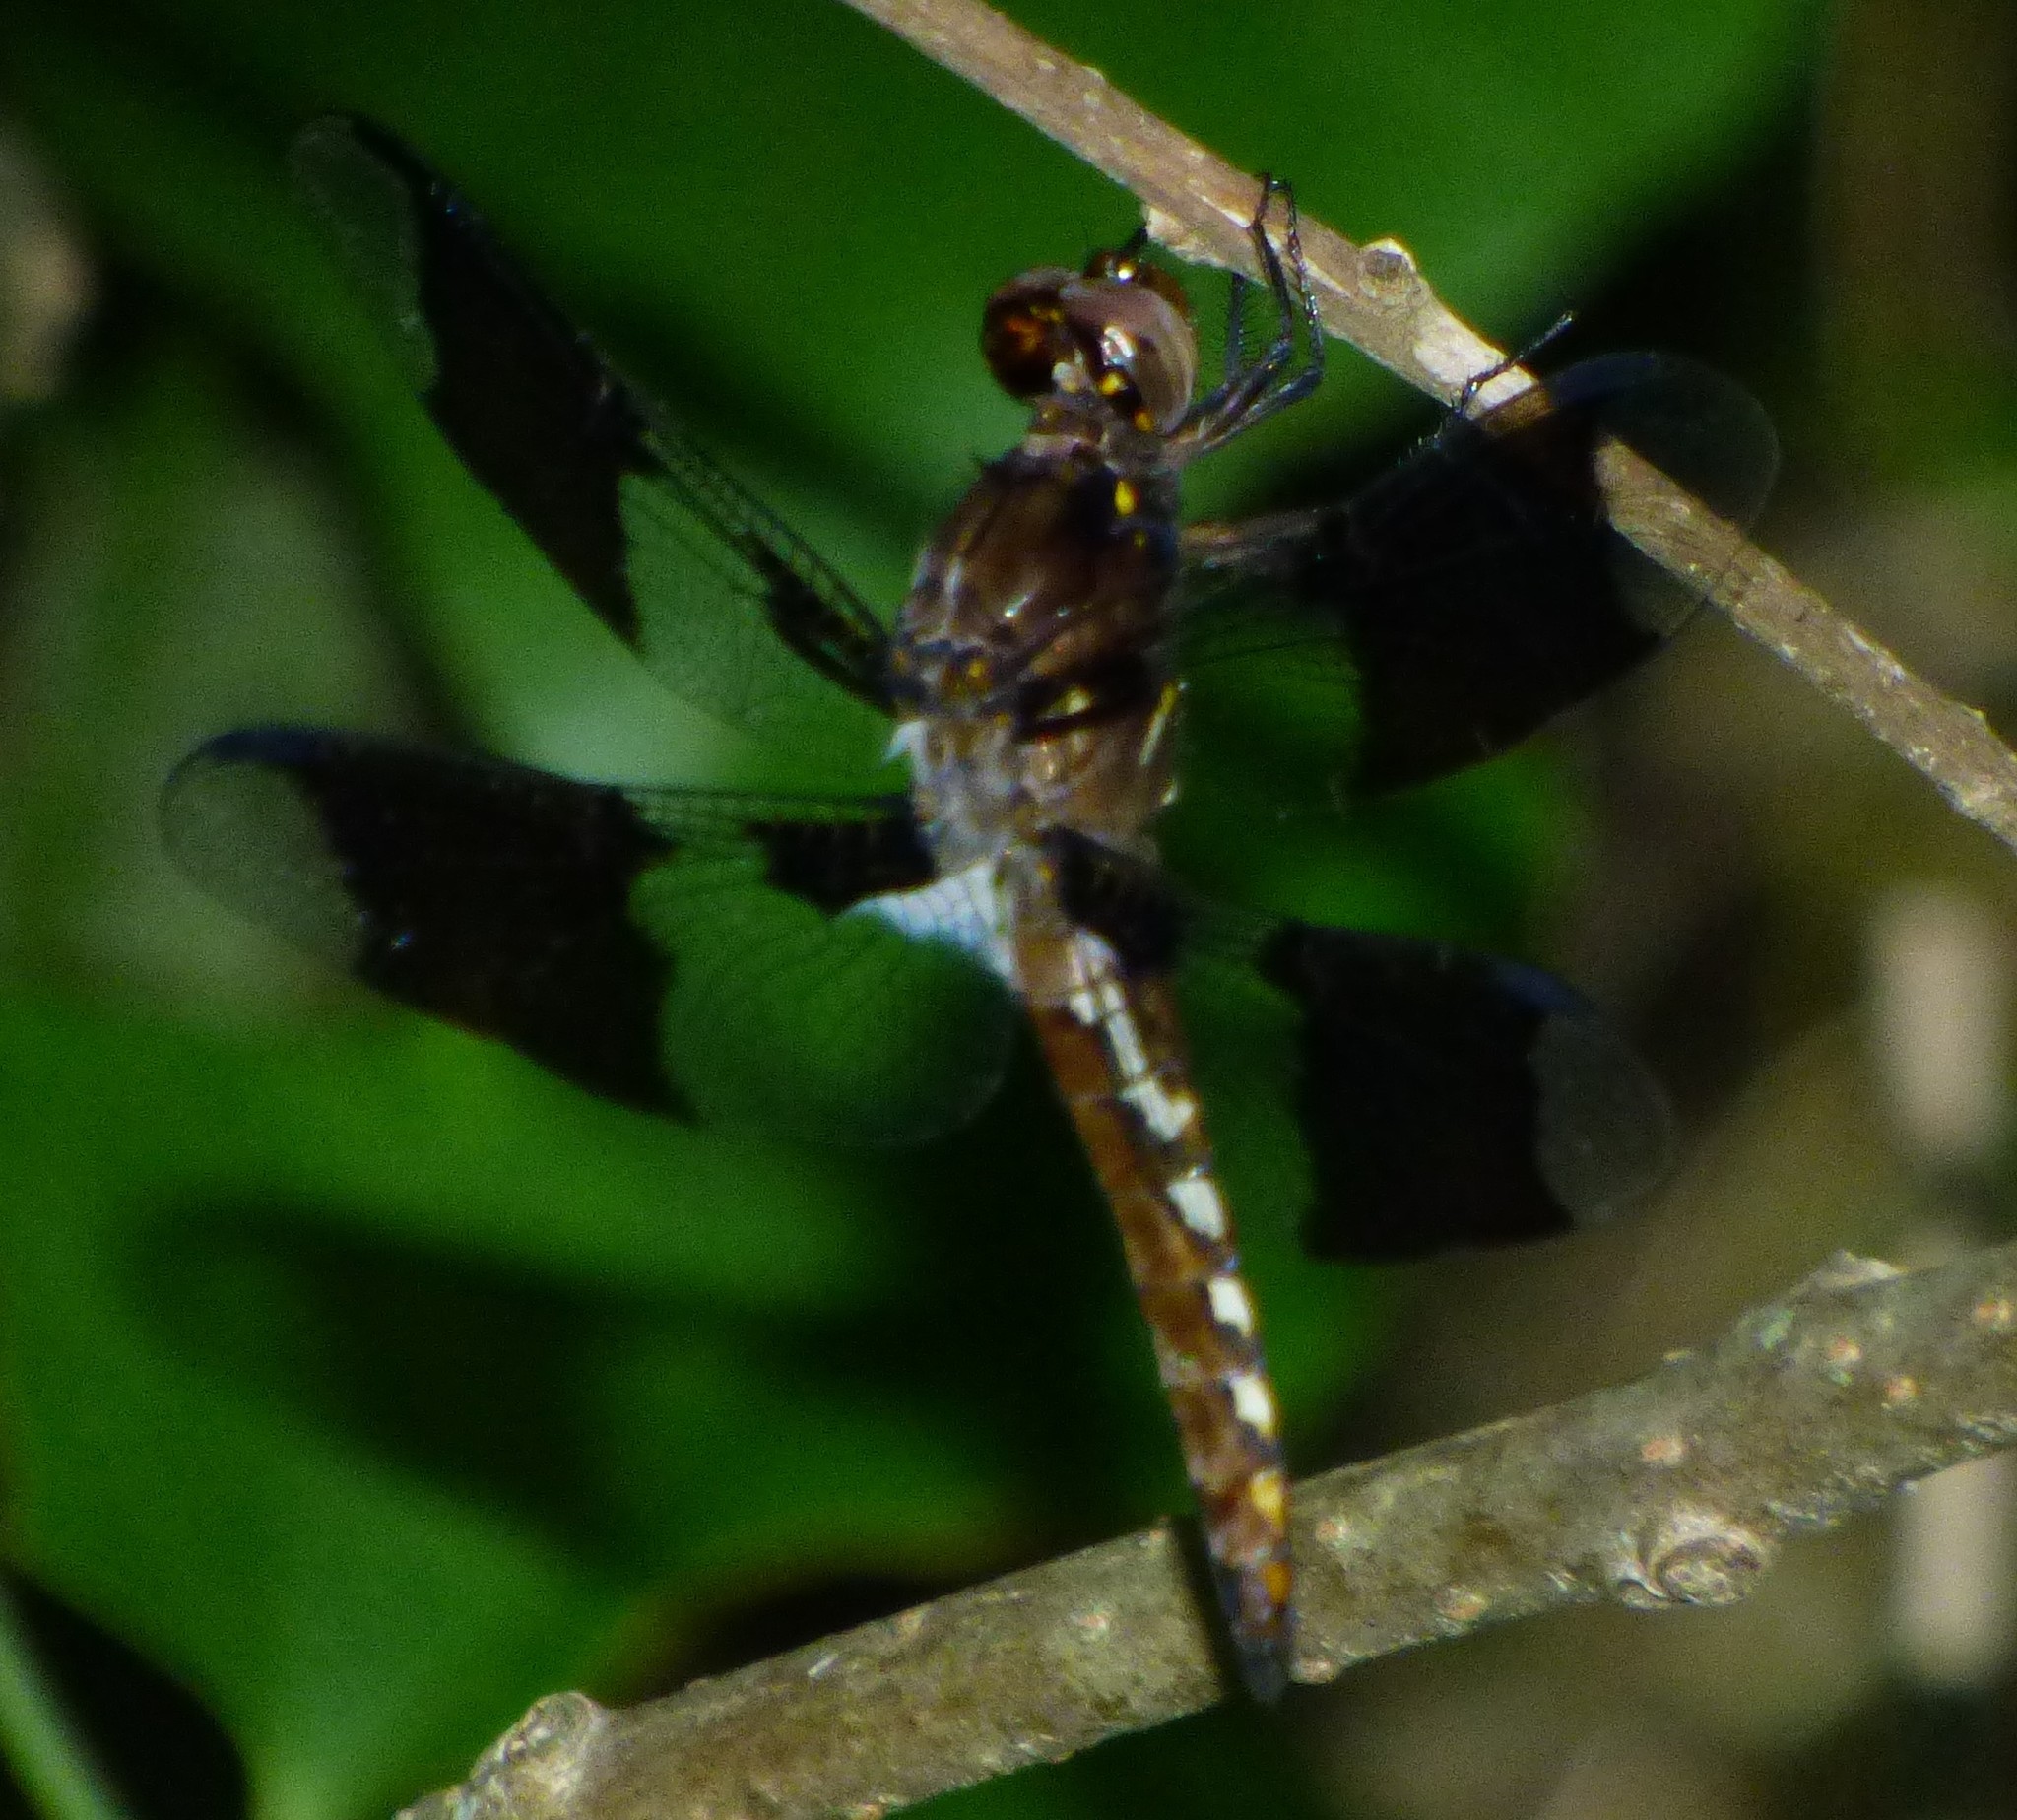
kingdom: Animalia
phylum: Arthropoda
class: Insecta
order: Odonata
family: Libellulidae
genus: Plathemis
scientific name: Plathemis lydia
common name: Common whitetail
